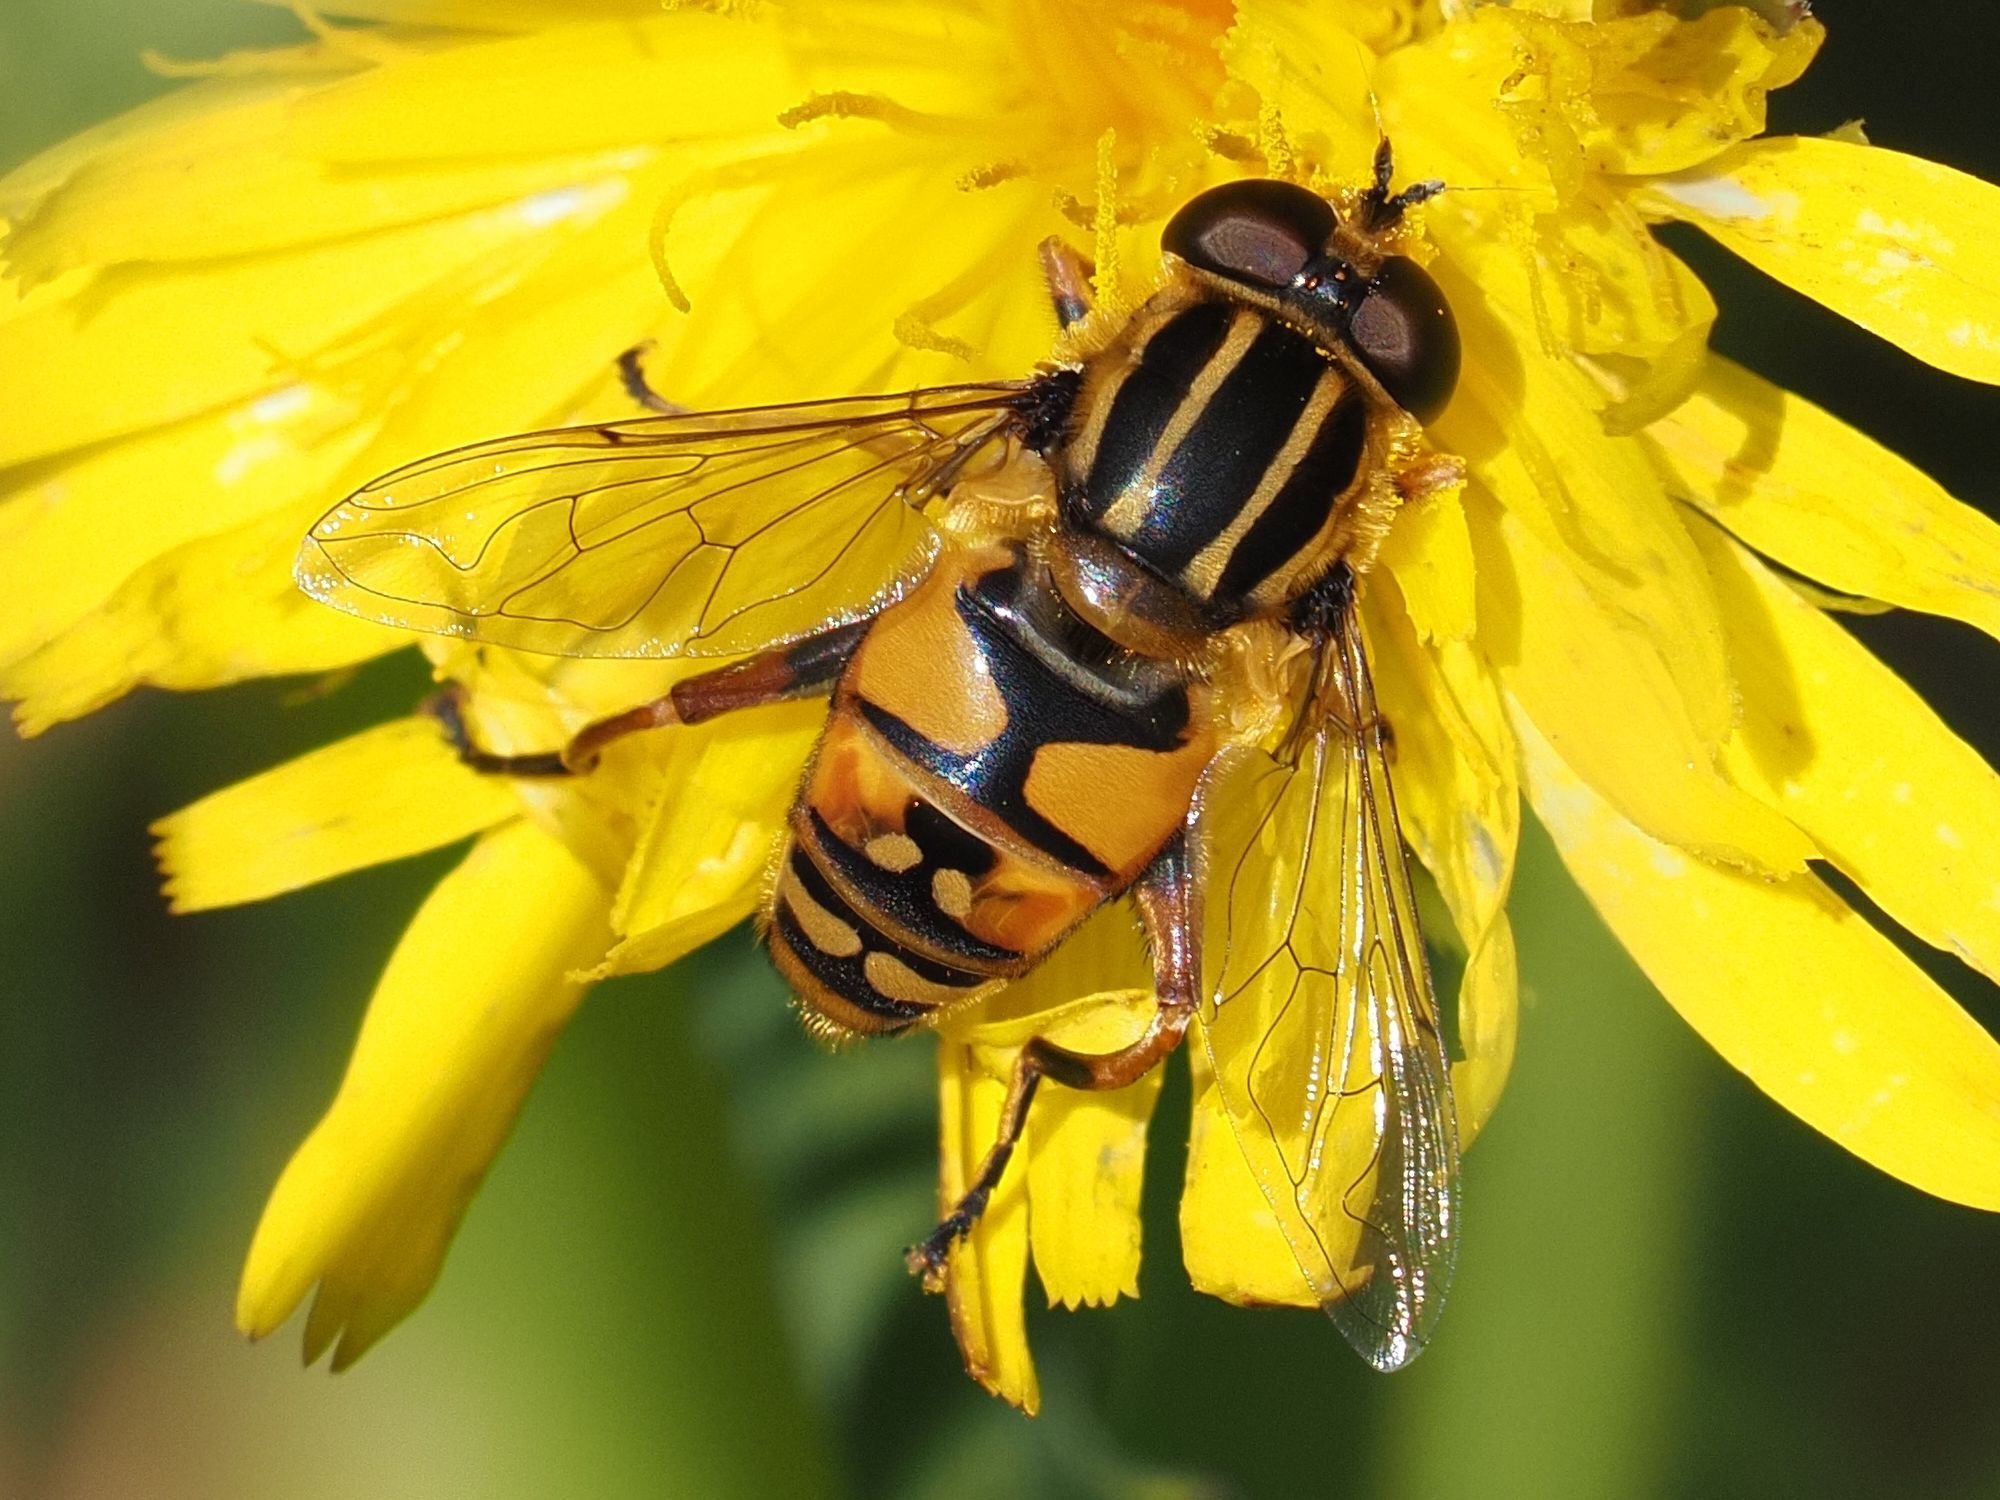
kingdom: Animalia
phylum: Arthropoda
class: Insecta
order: Diptera
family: Syrphidae
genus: Helophilus
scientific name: Helophilus pendulus
